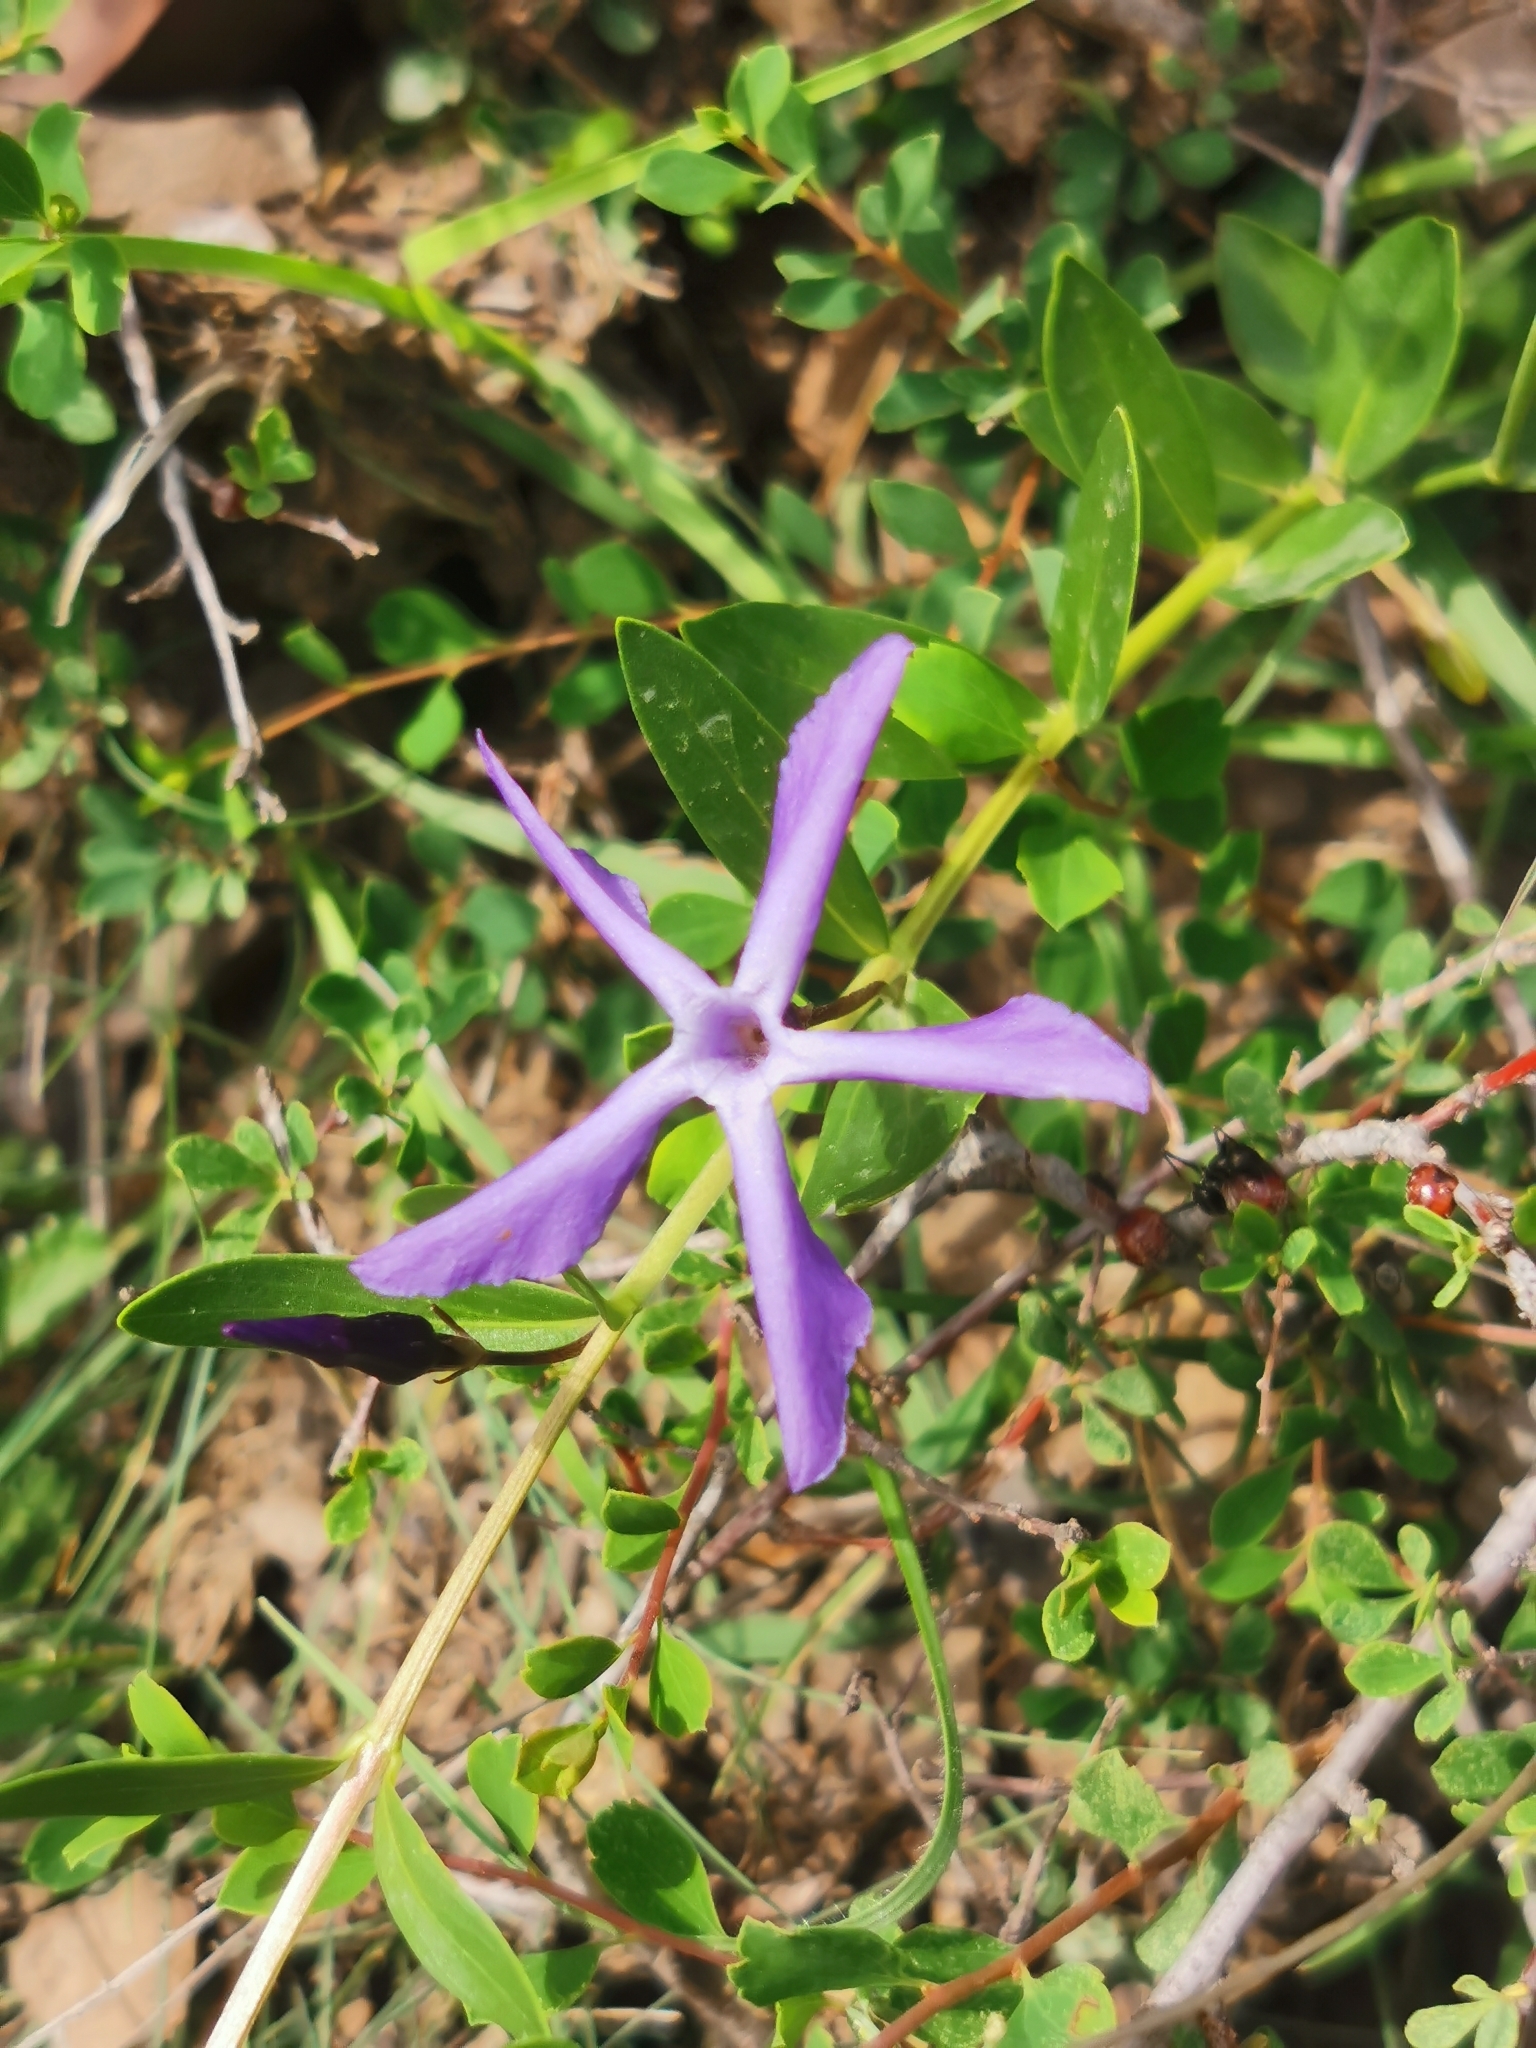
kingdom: Plantae
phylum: Tracheophyta
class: Magnoliopsida
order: Gentianales
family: Apocynaceae
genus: Vinca
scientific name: Vinca herbacea
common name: Herbaceous periwinkle
